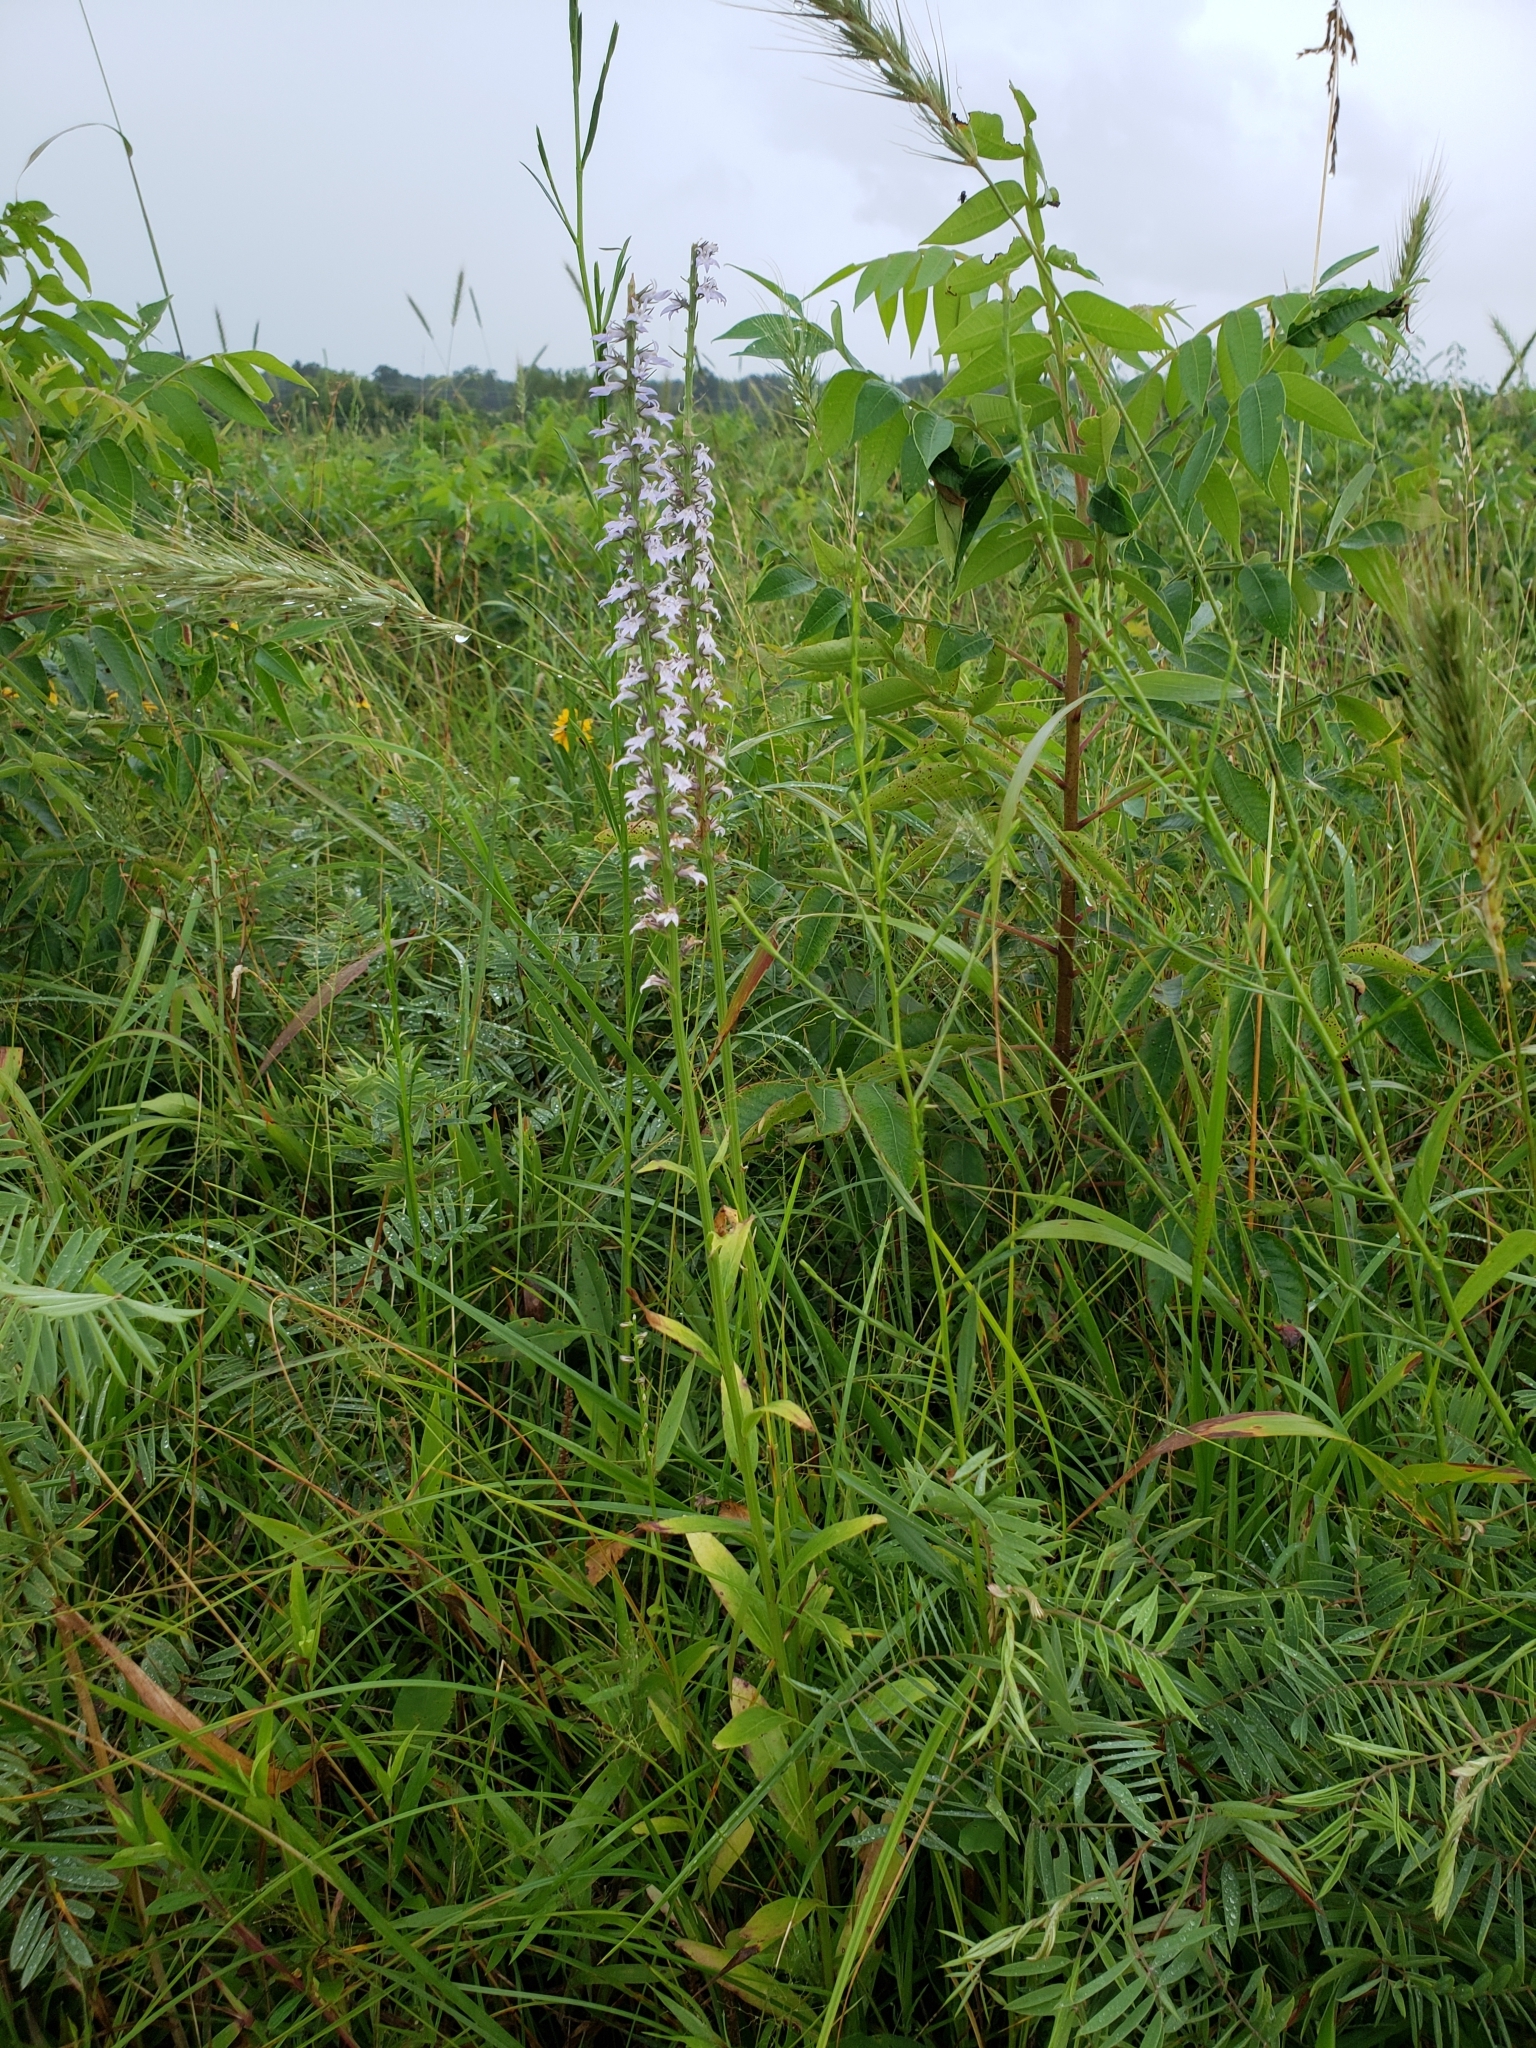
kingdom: Plantae
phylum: Tracheophyta
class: Magnoliopsida
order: Asterales
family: Campanulaceae
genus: Lobelia
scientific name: Lobelia spicata
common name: Pale-spike lobelia
